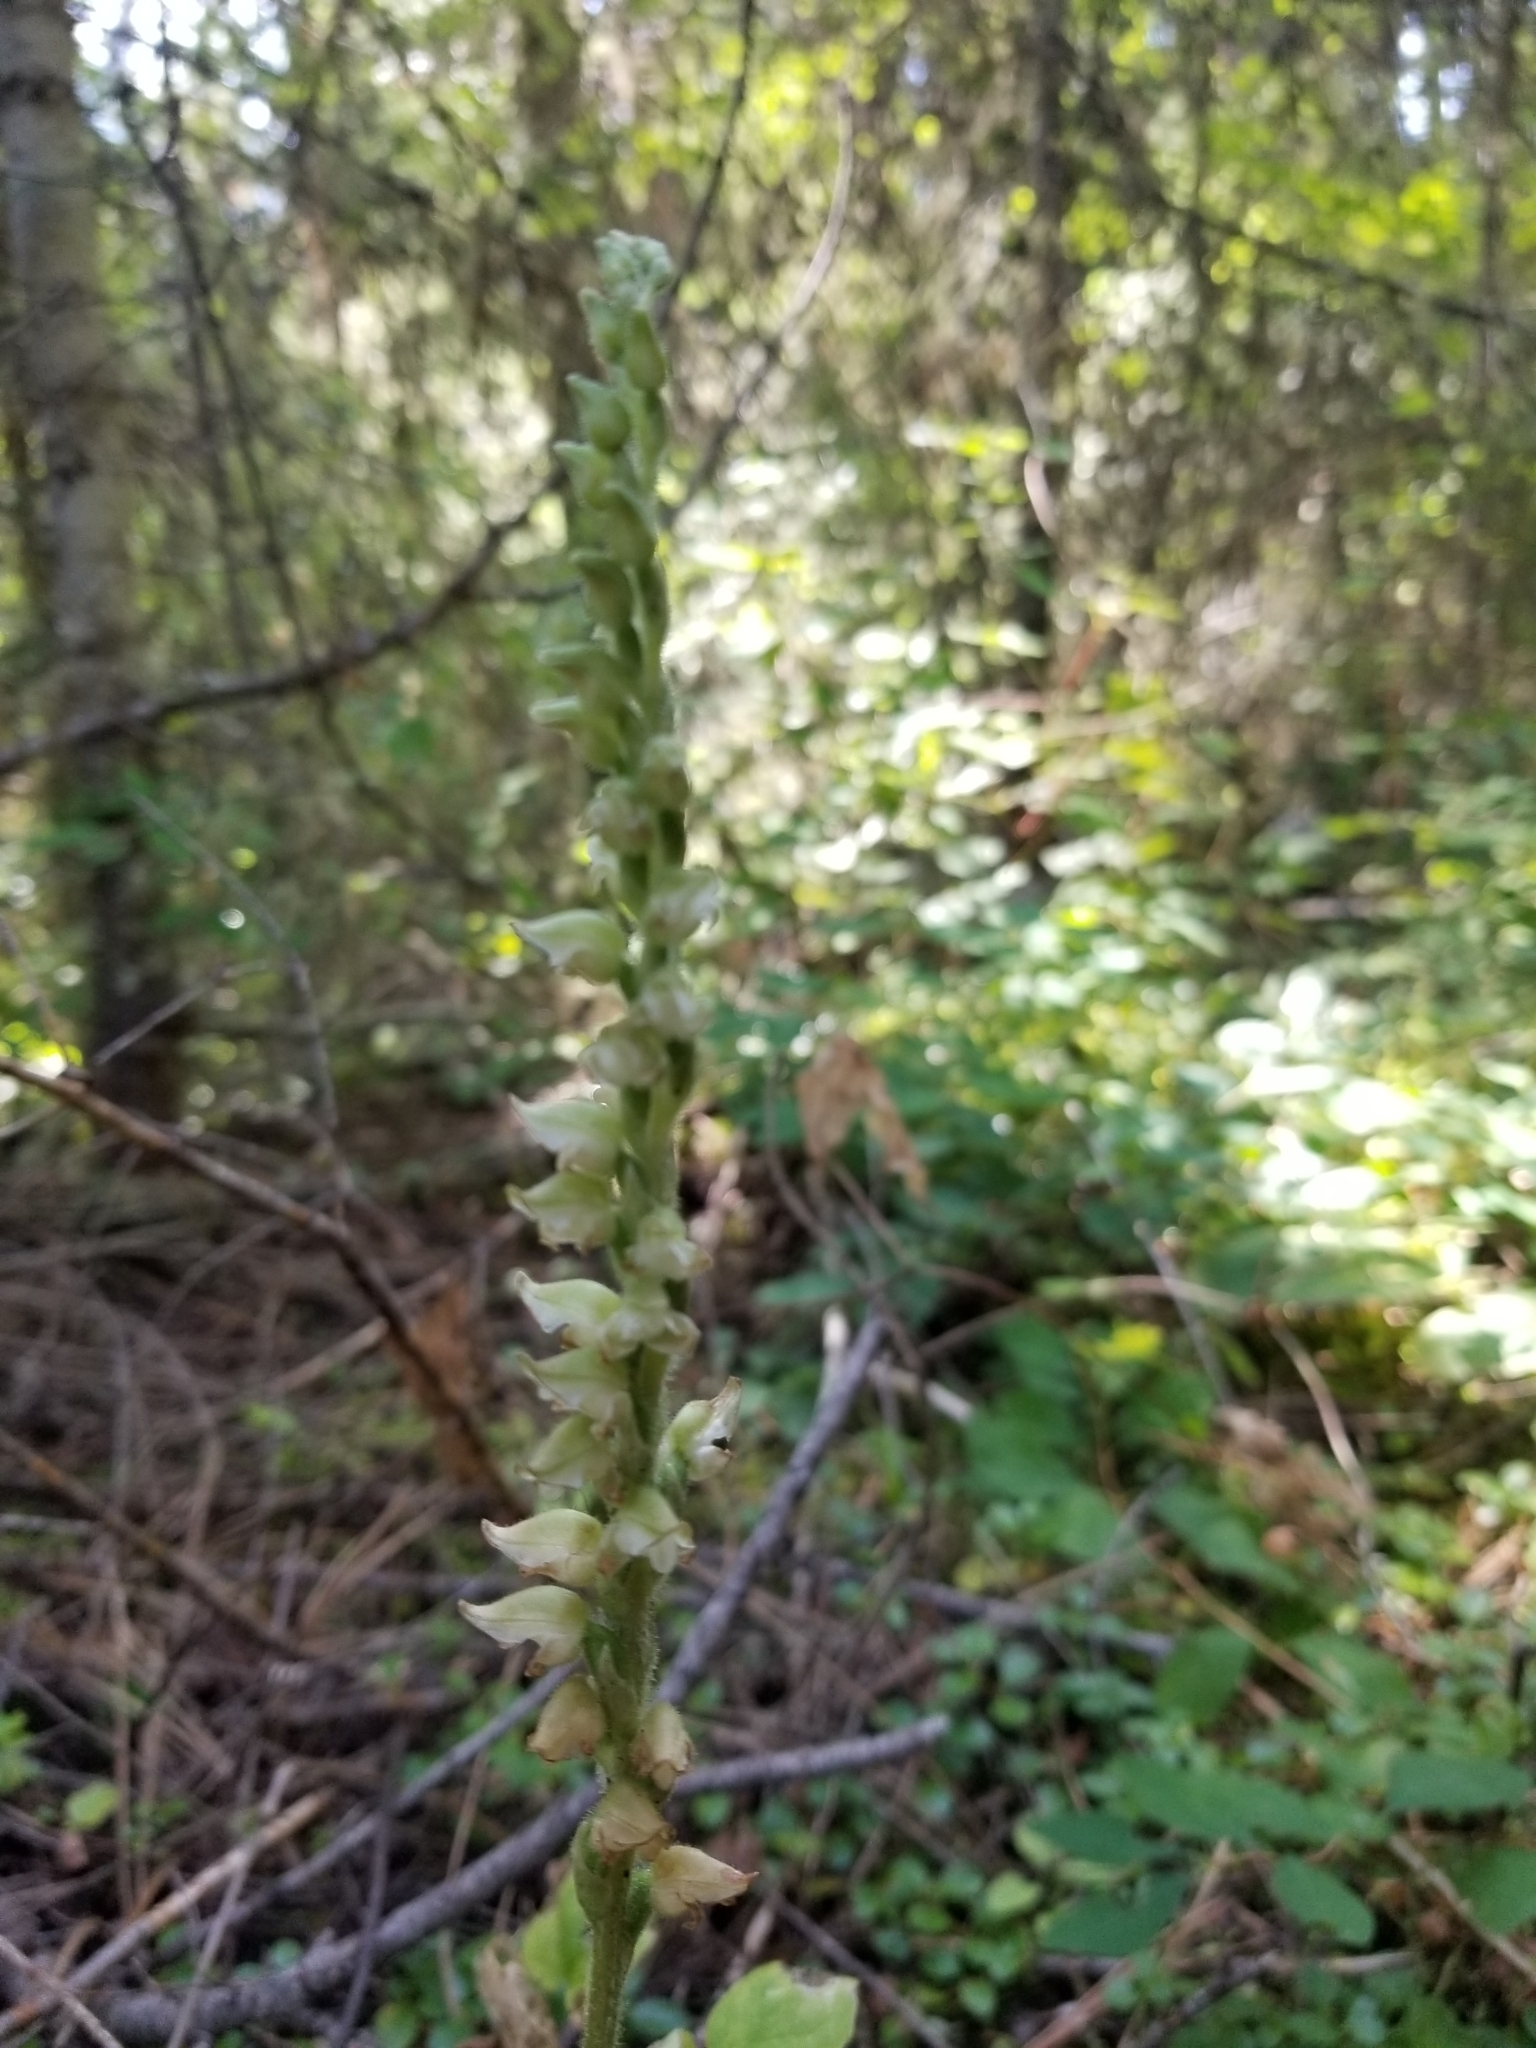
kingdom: Plantae
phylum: Tracheophyta
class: Liliopsida
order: Asparagales
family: Orchidaceae
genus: Goodyera
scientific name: Goodyera oblongifolia
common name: Giant rattlesnake-plantain
